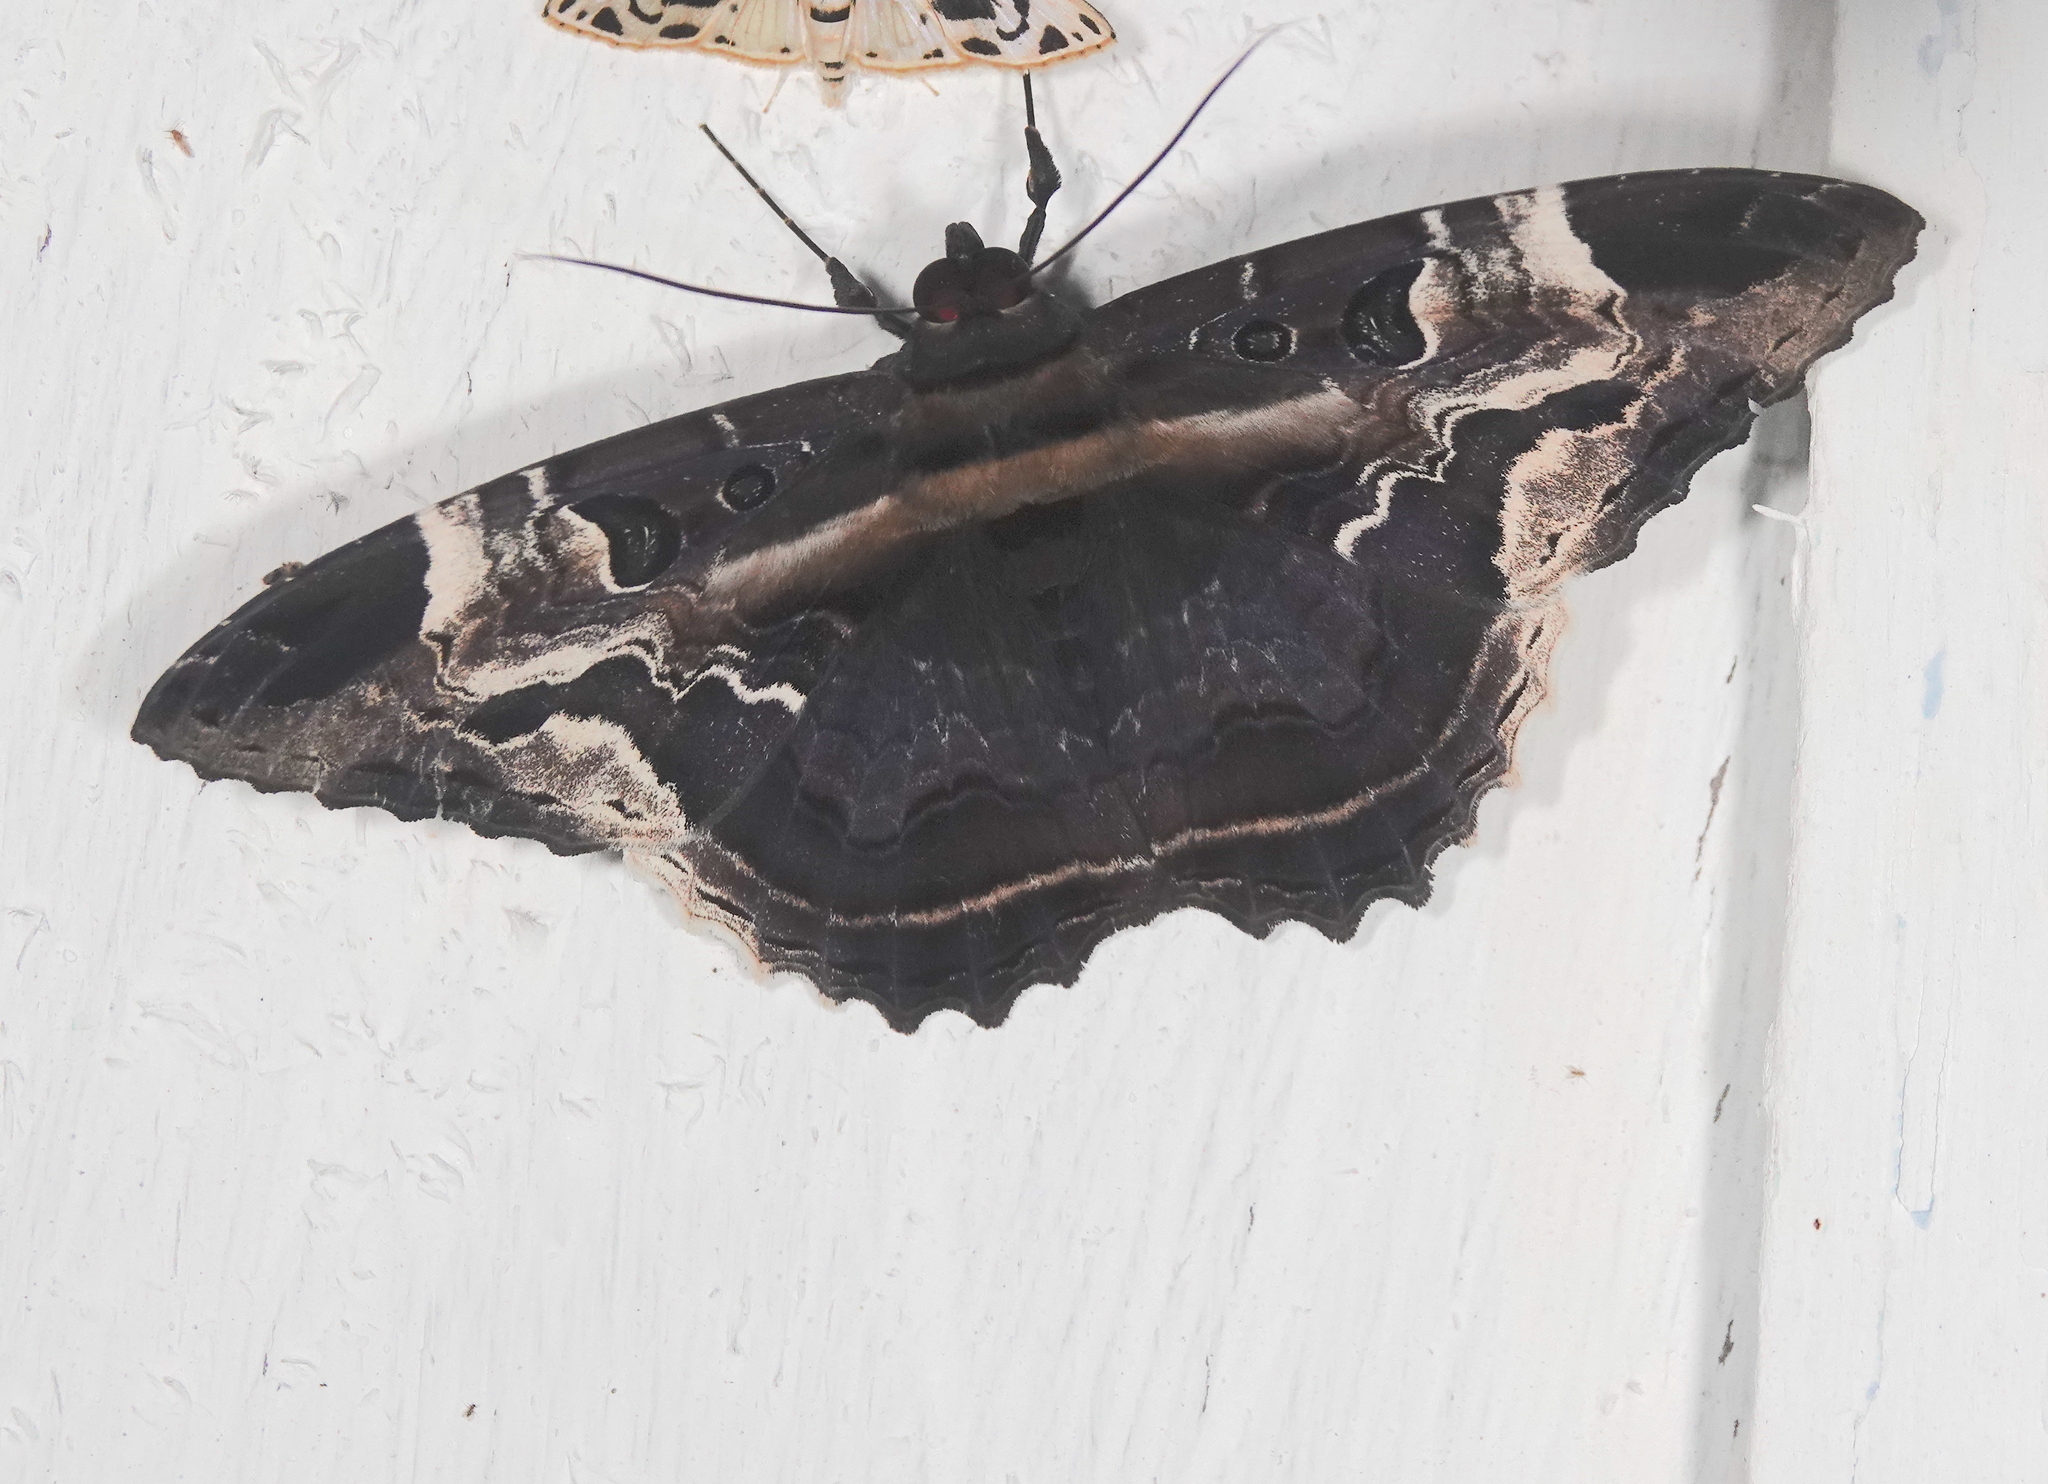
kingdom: Animalia
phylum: Arthropoda
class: Insecta
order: Lepidoptera
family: Erebidae
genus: Feigeria
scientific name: Feigeria herilia
